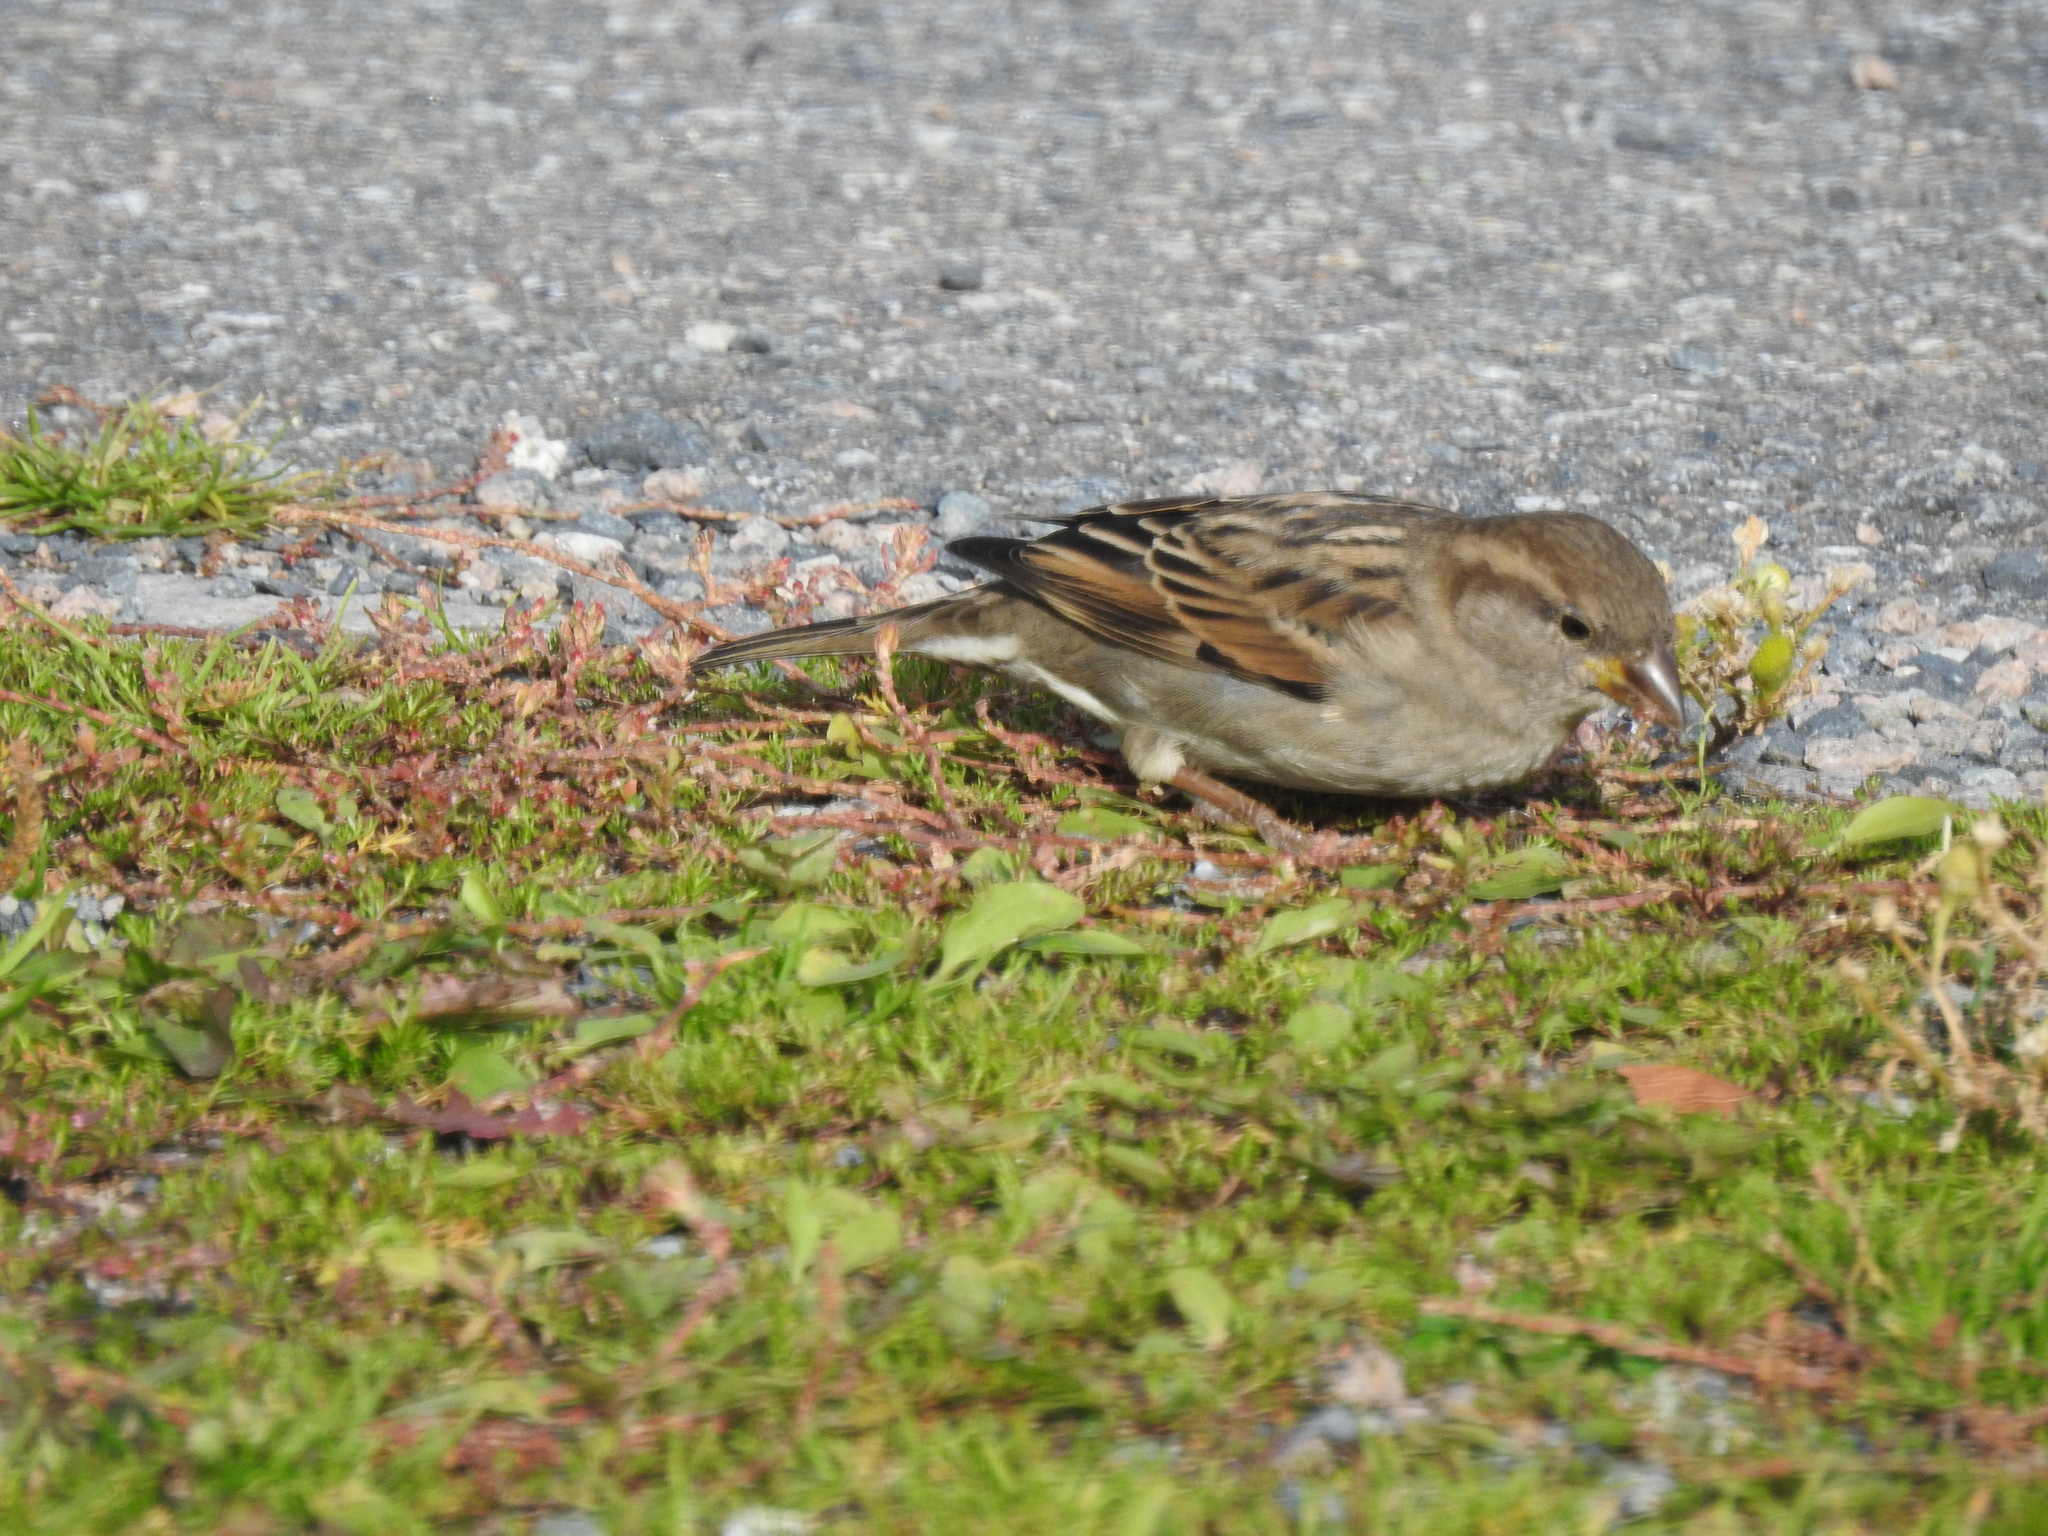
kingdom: Animalia
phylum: Chordata
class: Aves
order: Passeriformes
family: Passeridae
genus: Passer
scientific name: Passer domesticus
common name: House sparrow
